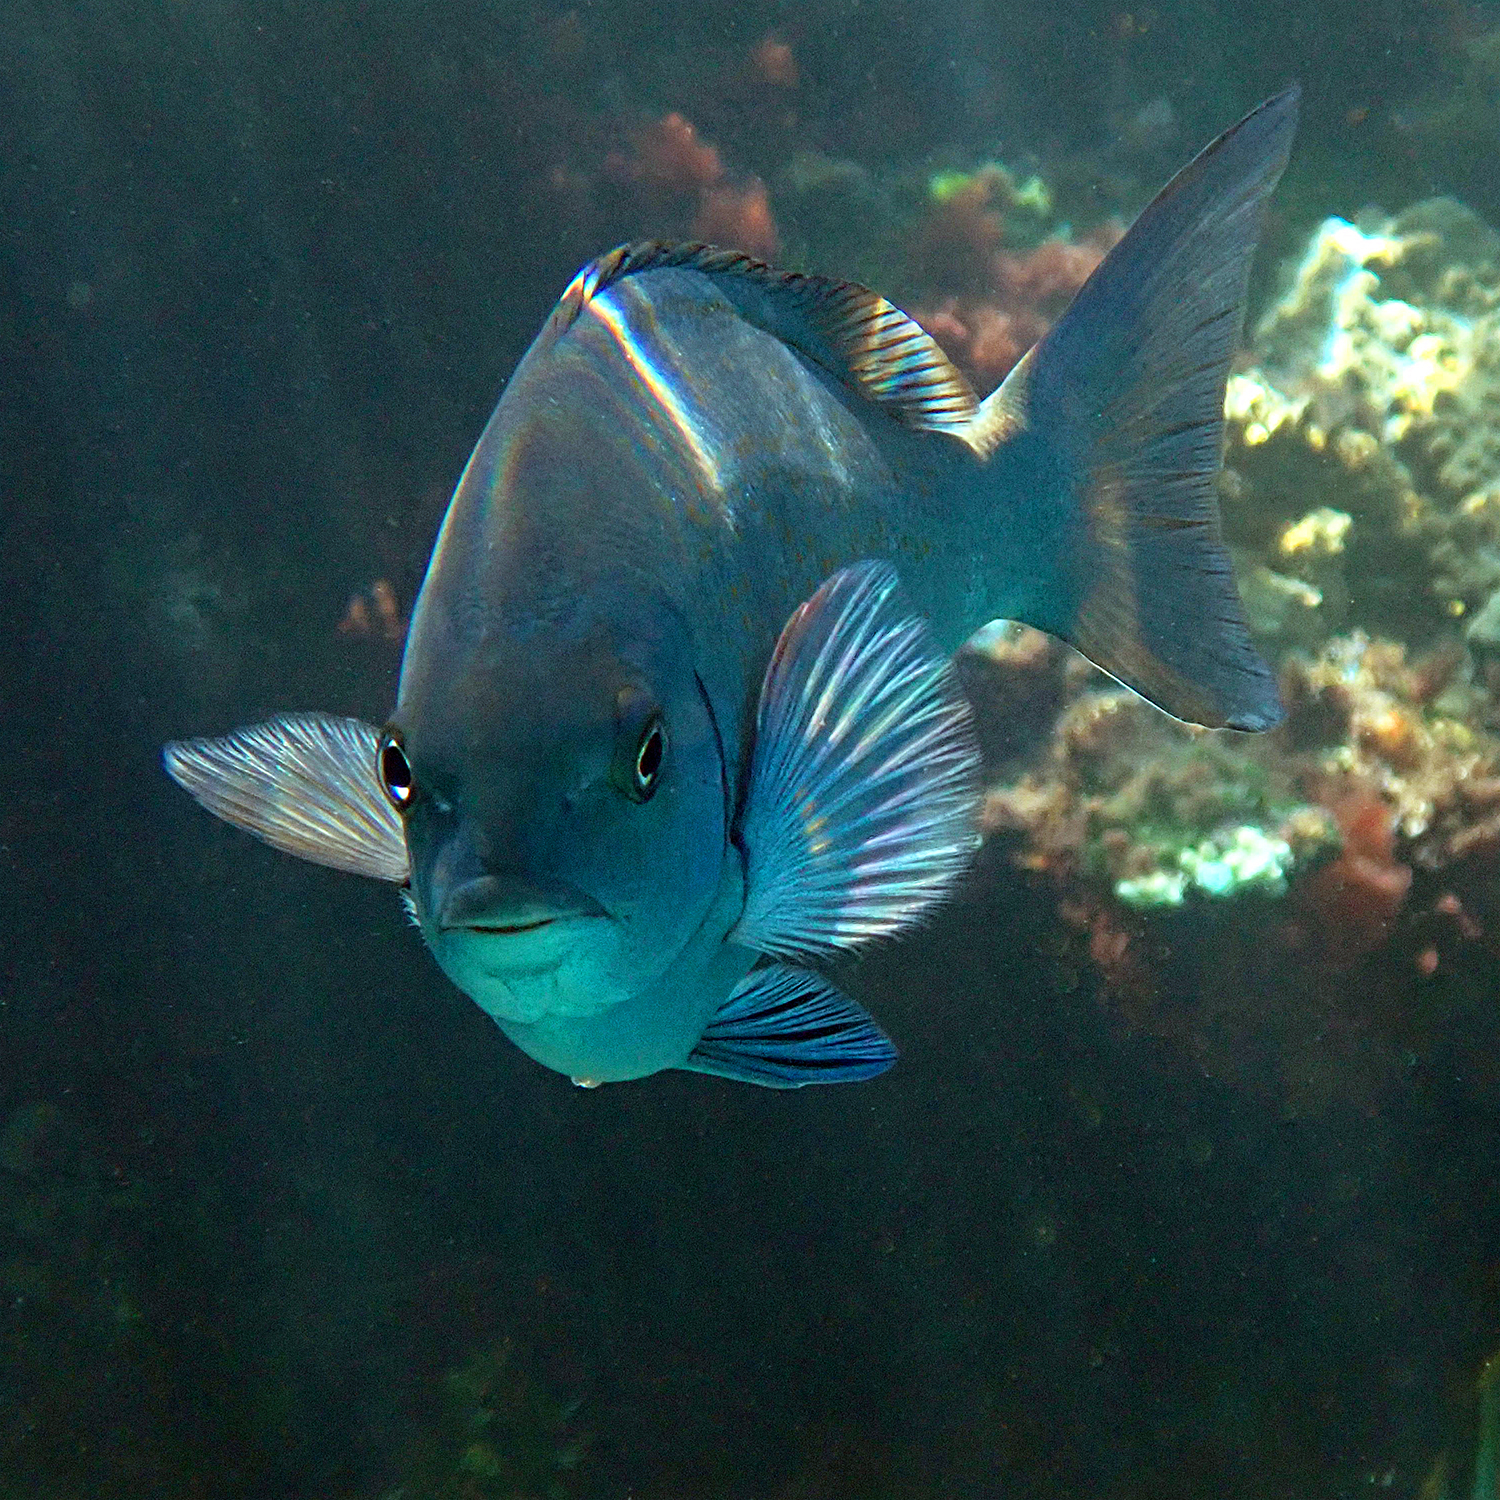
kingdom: Animalia
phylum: Chordata
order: Perciformes
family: Kyphosidae
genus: Girella
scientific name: Girella cyanea
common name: Bluefish
